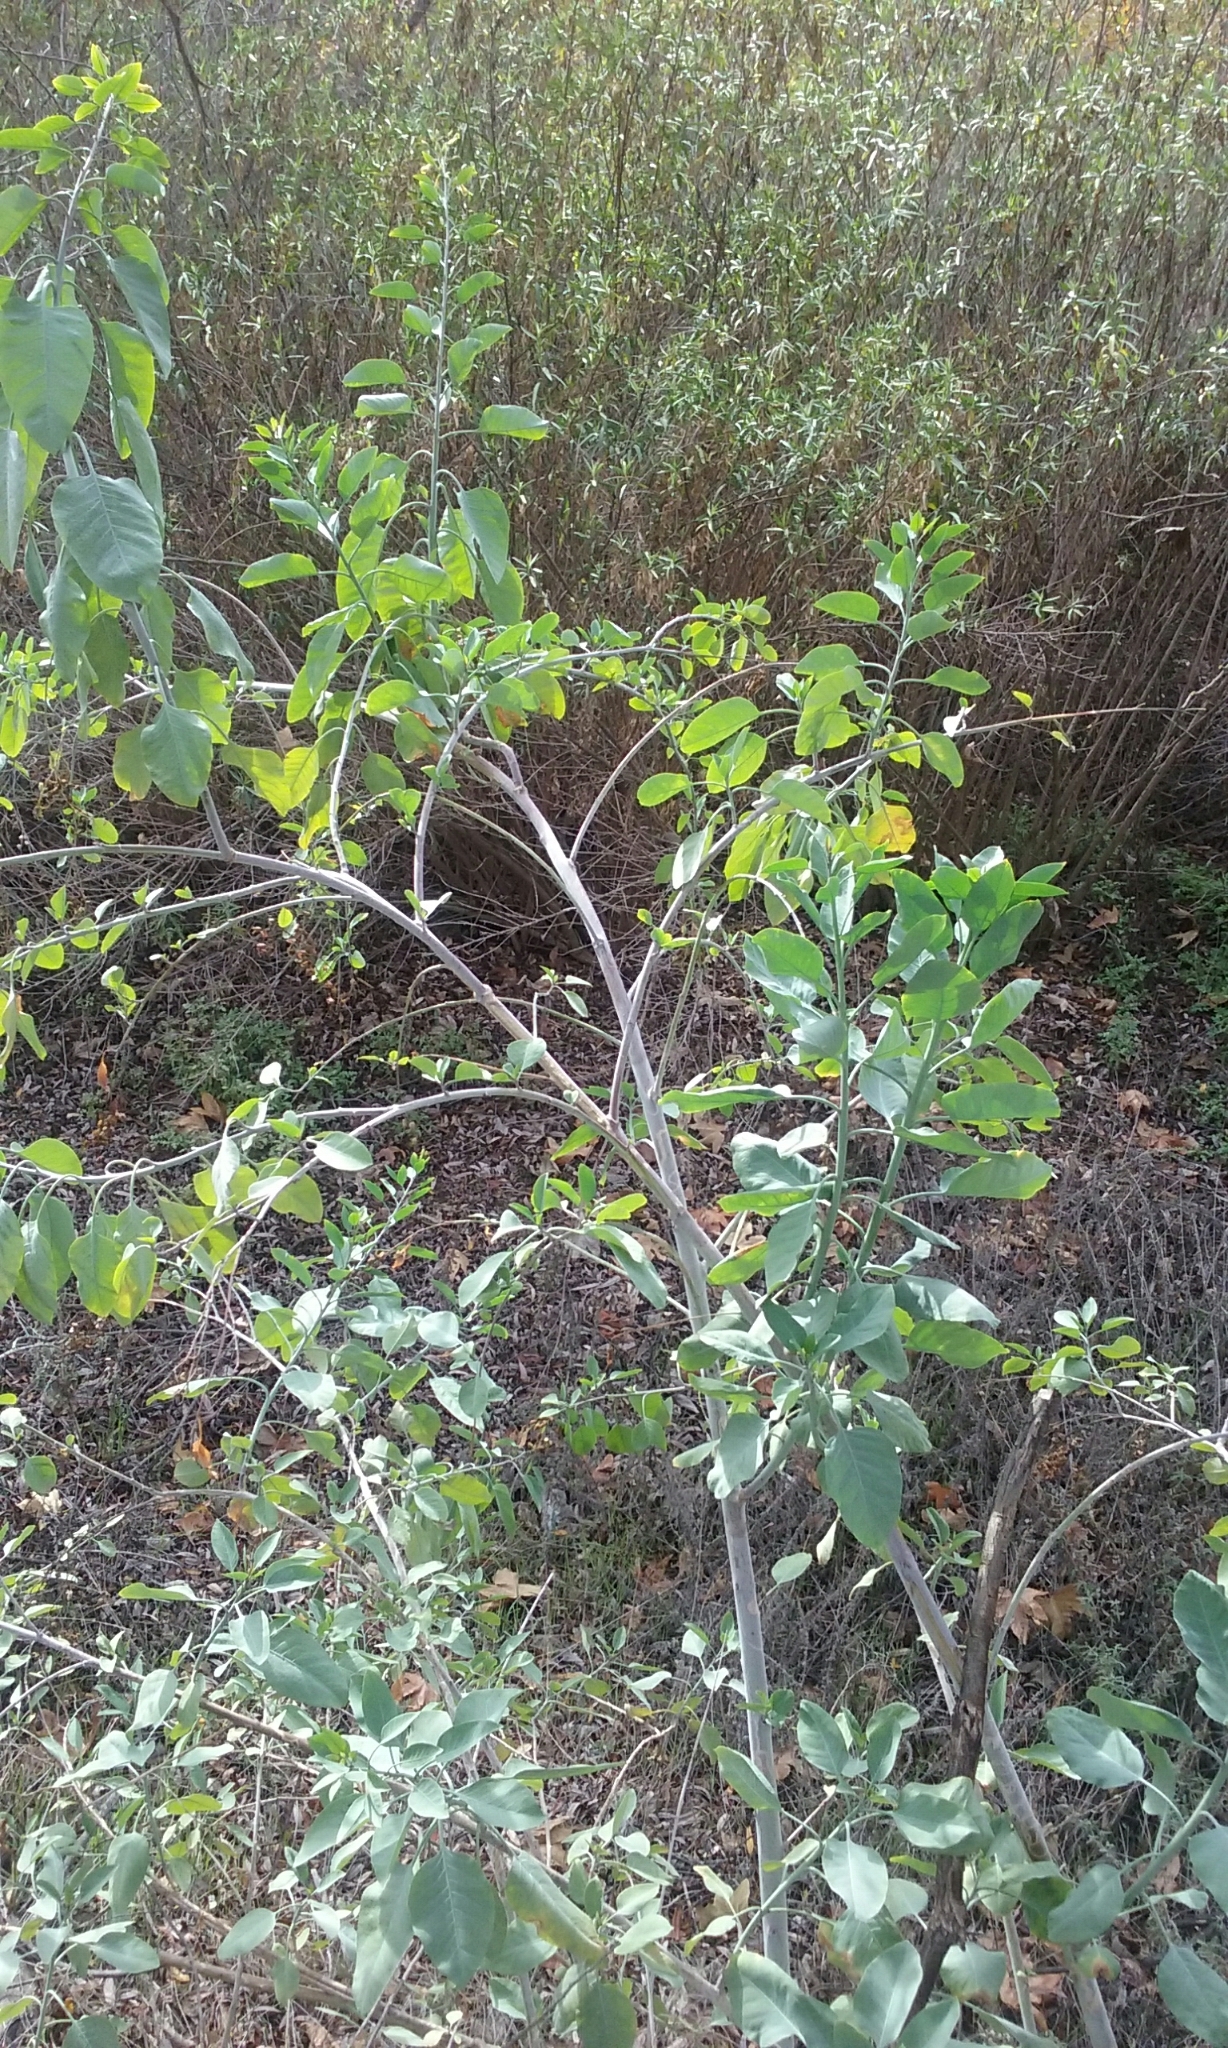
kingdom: Plantae
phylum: Tracheophyta
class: Magnoliopsida
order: Solanales
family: Solanaceae
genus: Nicotiana
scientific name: Nicotiana glauca
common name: Tree tobacco
